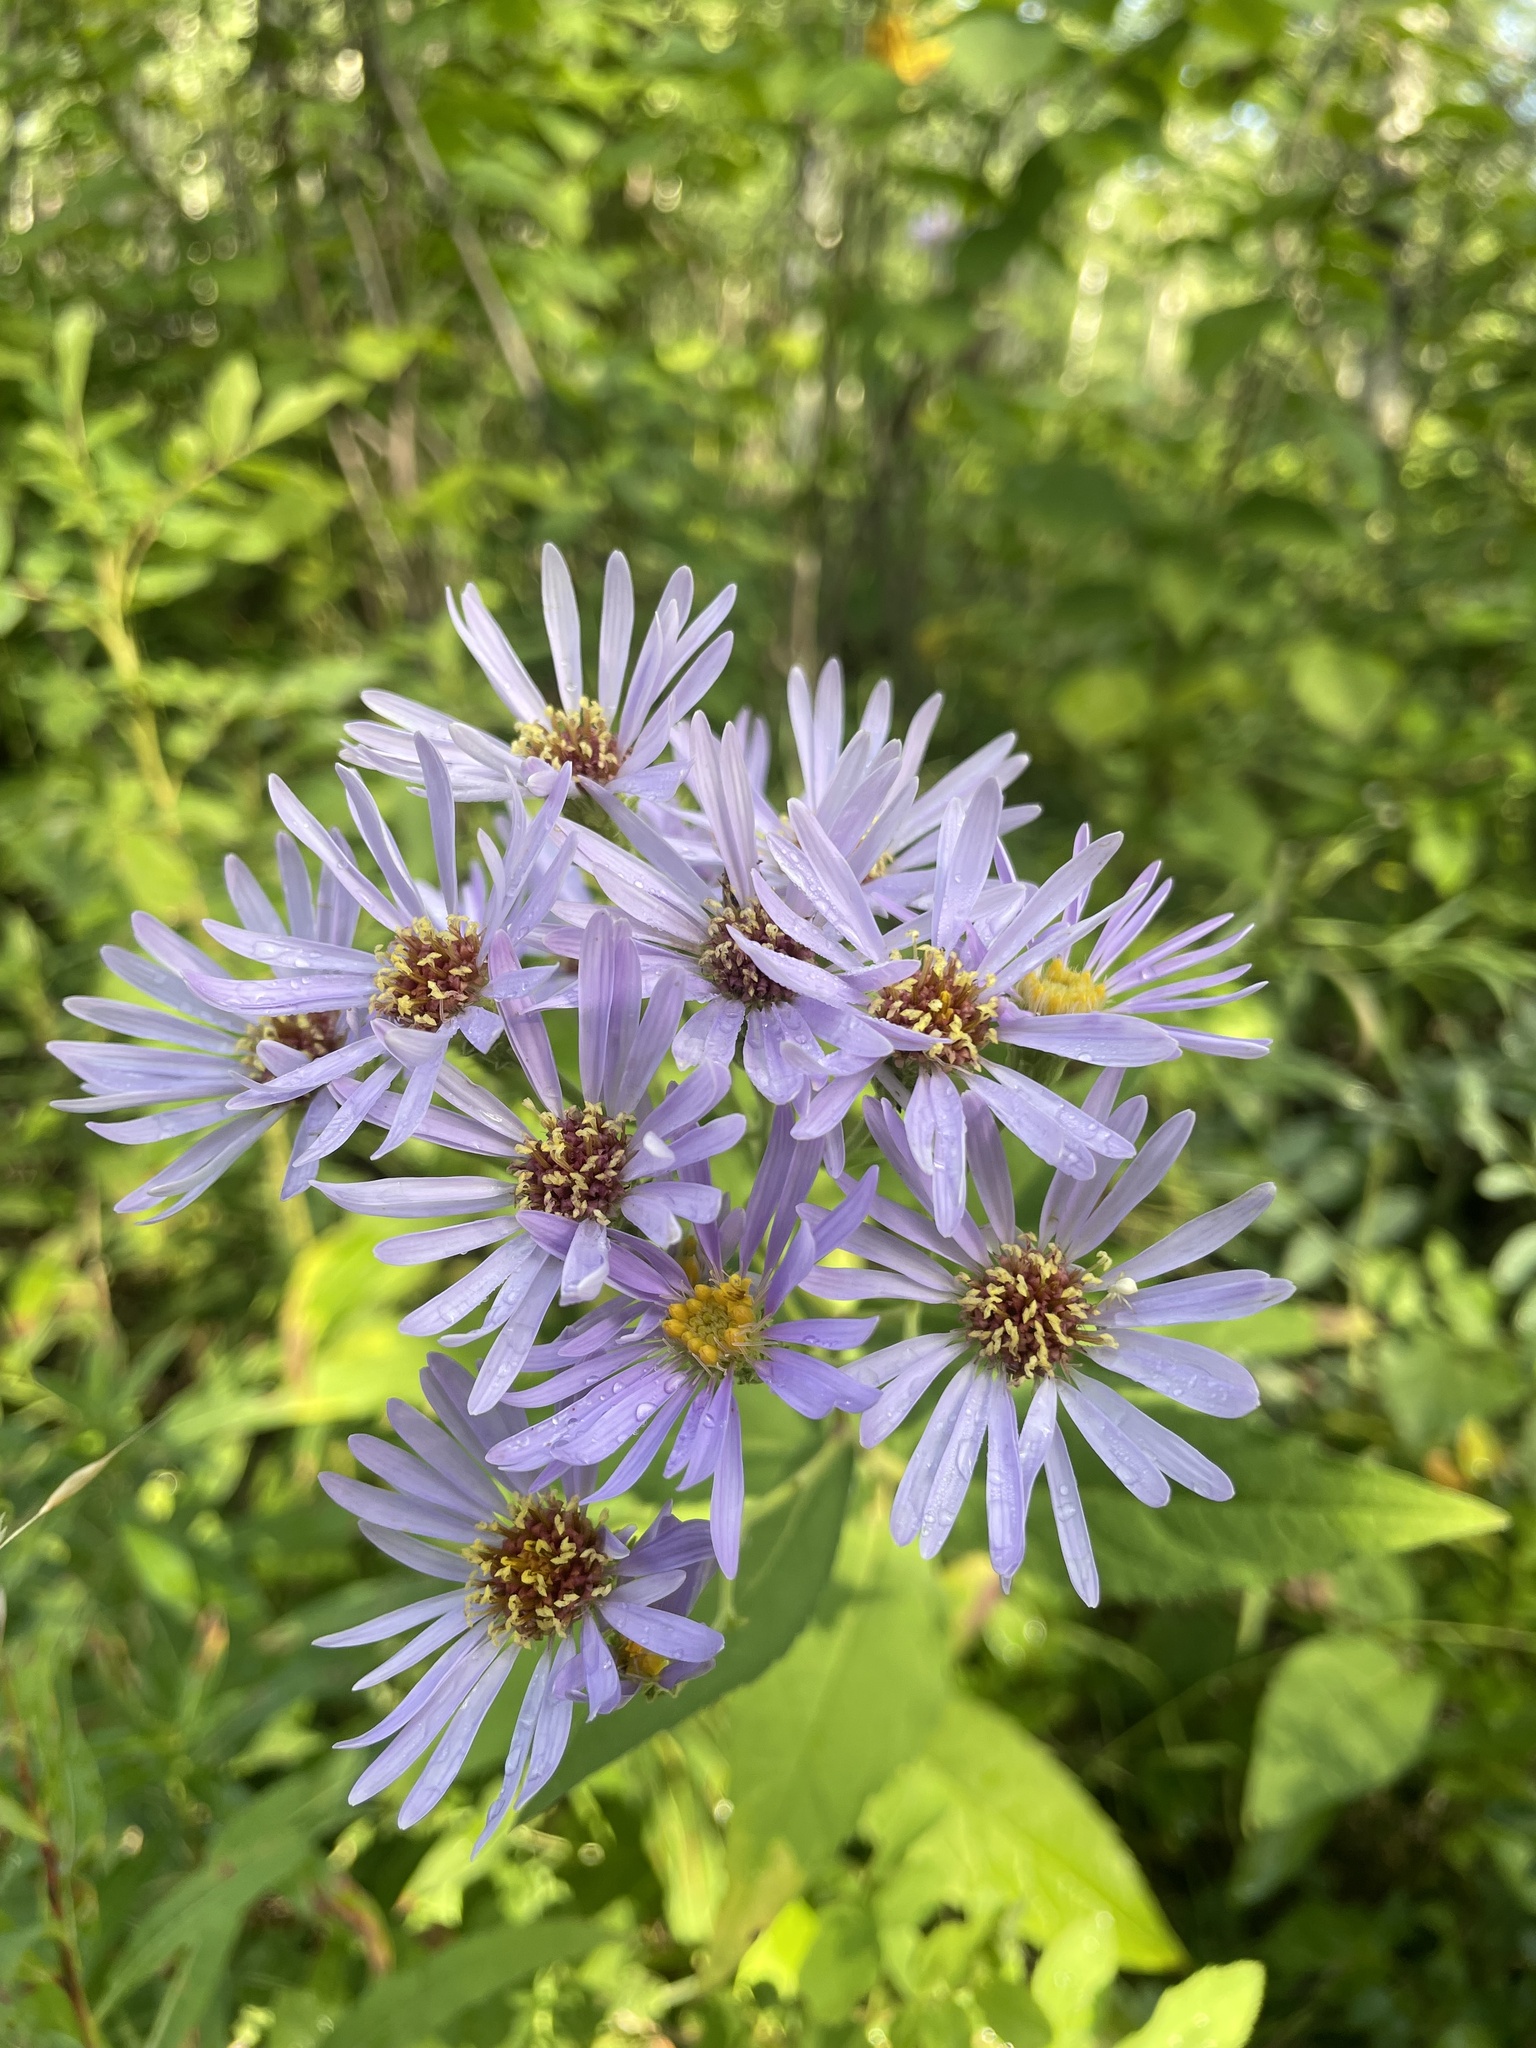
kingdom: Plantae
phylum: Tracheophyta
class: Magnoliopsida
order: Asterales
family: Asteraceae
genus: Eurybia
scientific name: Eurybia conspicua
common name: Showy aster
